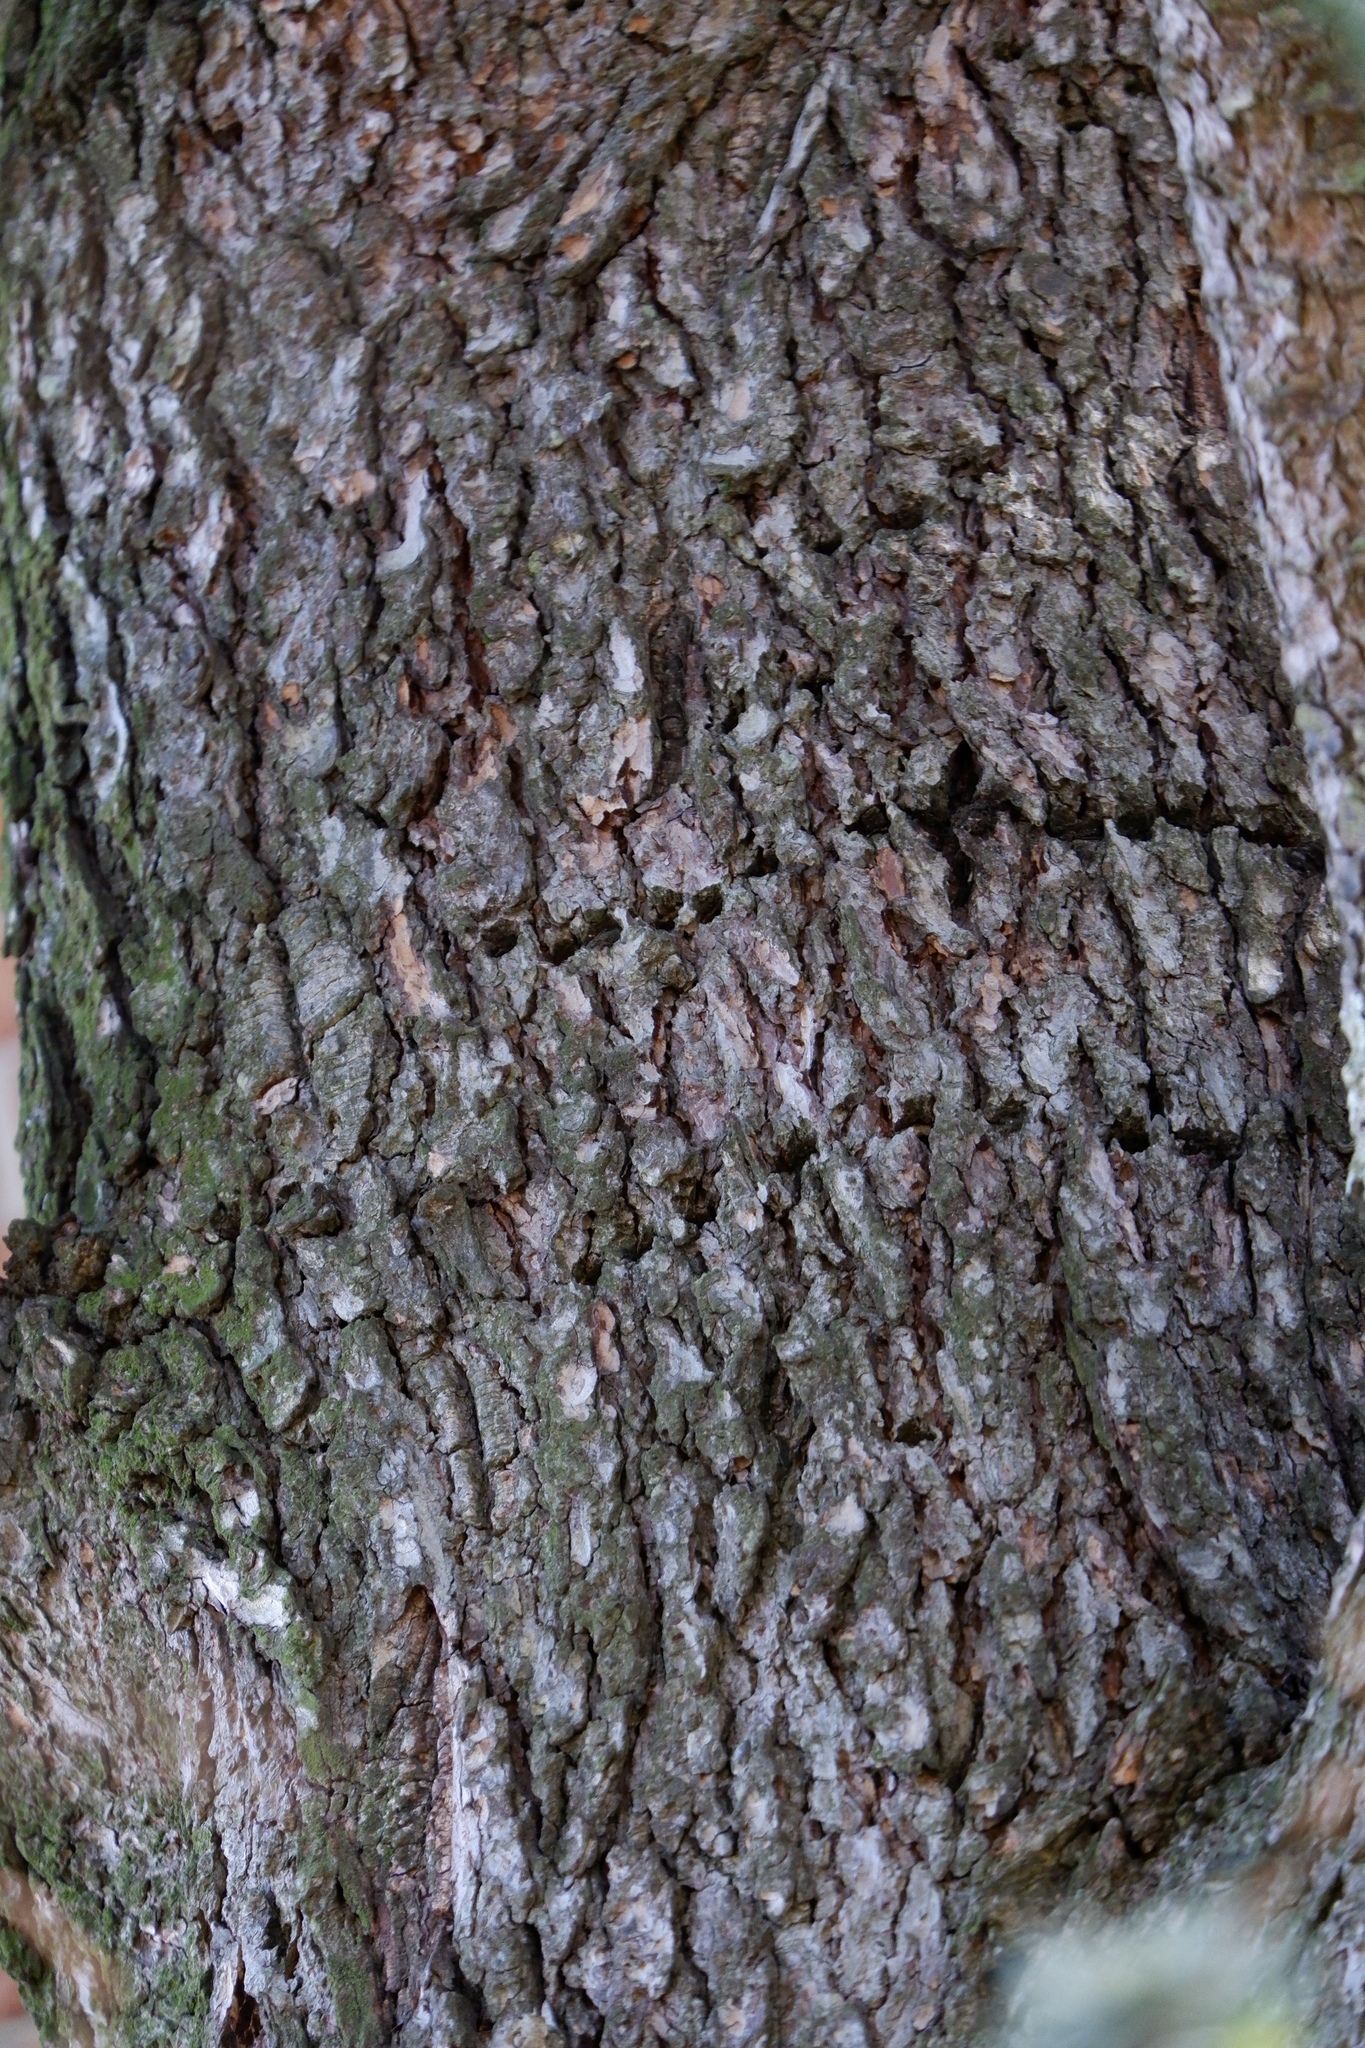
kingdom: Animalia
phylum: Chordata
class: Aves
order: Piciformes
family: Picidae
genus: Sphyrapicus
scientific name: Sphyrapicus varius
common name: Yellow-bellied sapsucker
